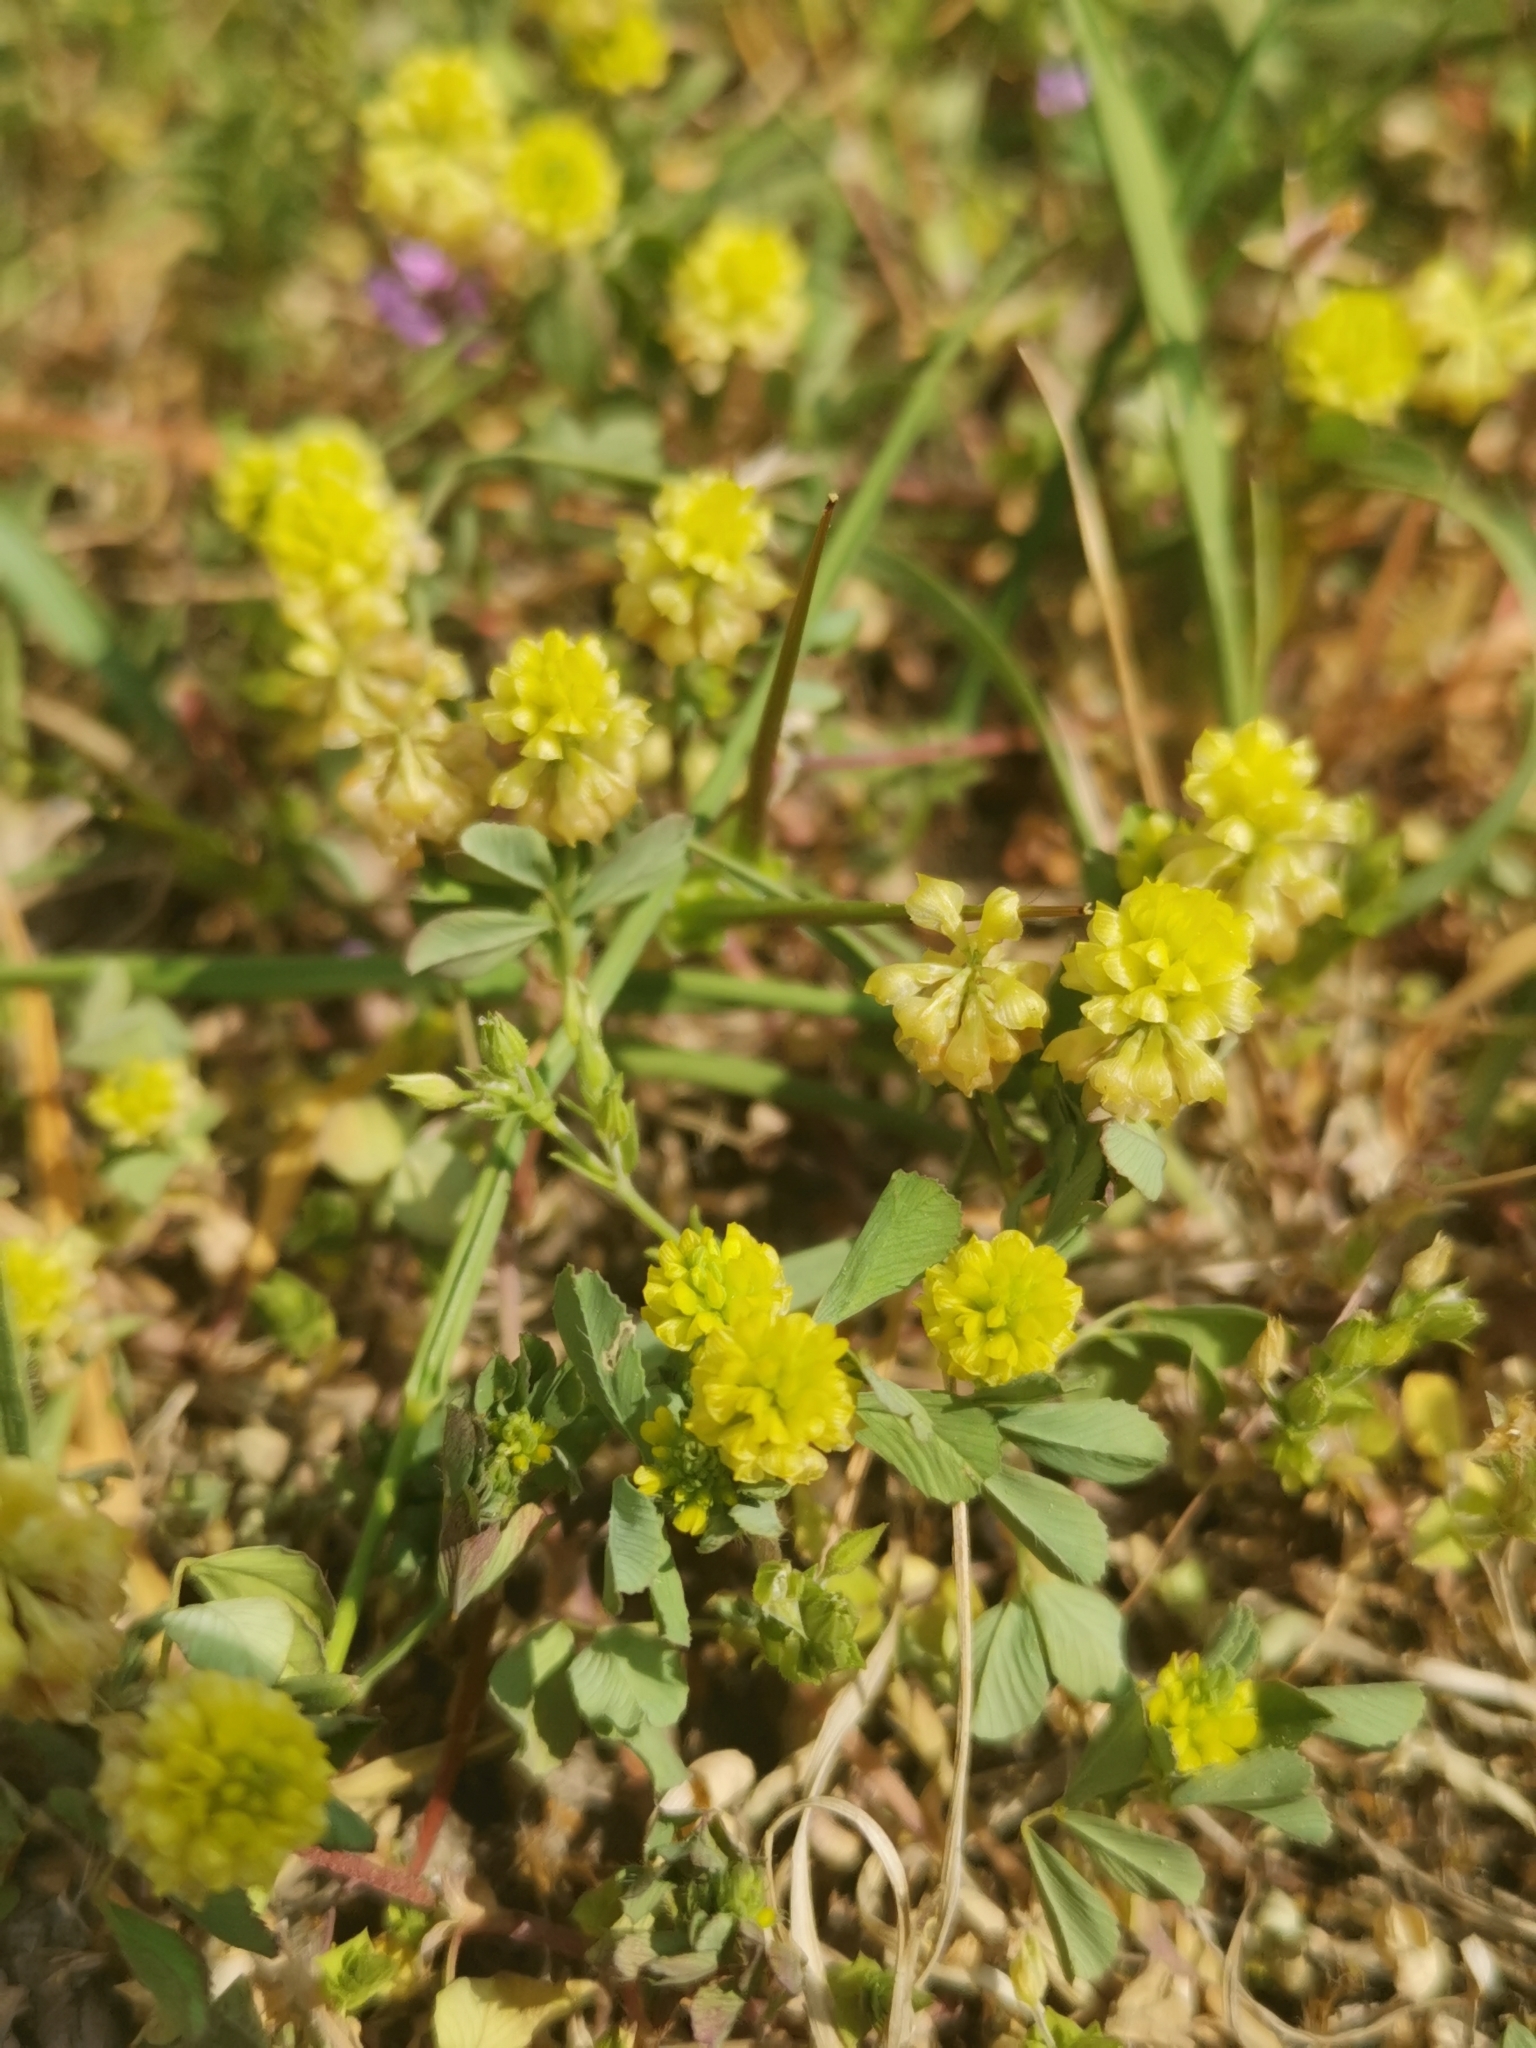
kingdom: Plantae
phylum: Tracheophyta
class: Magnoliopsida
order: Fabales
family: Fabaceae
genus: Trifolium
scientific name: Trifolium campestre
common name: Field clover
